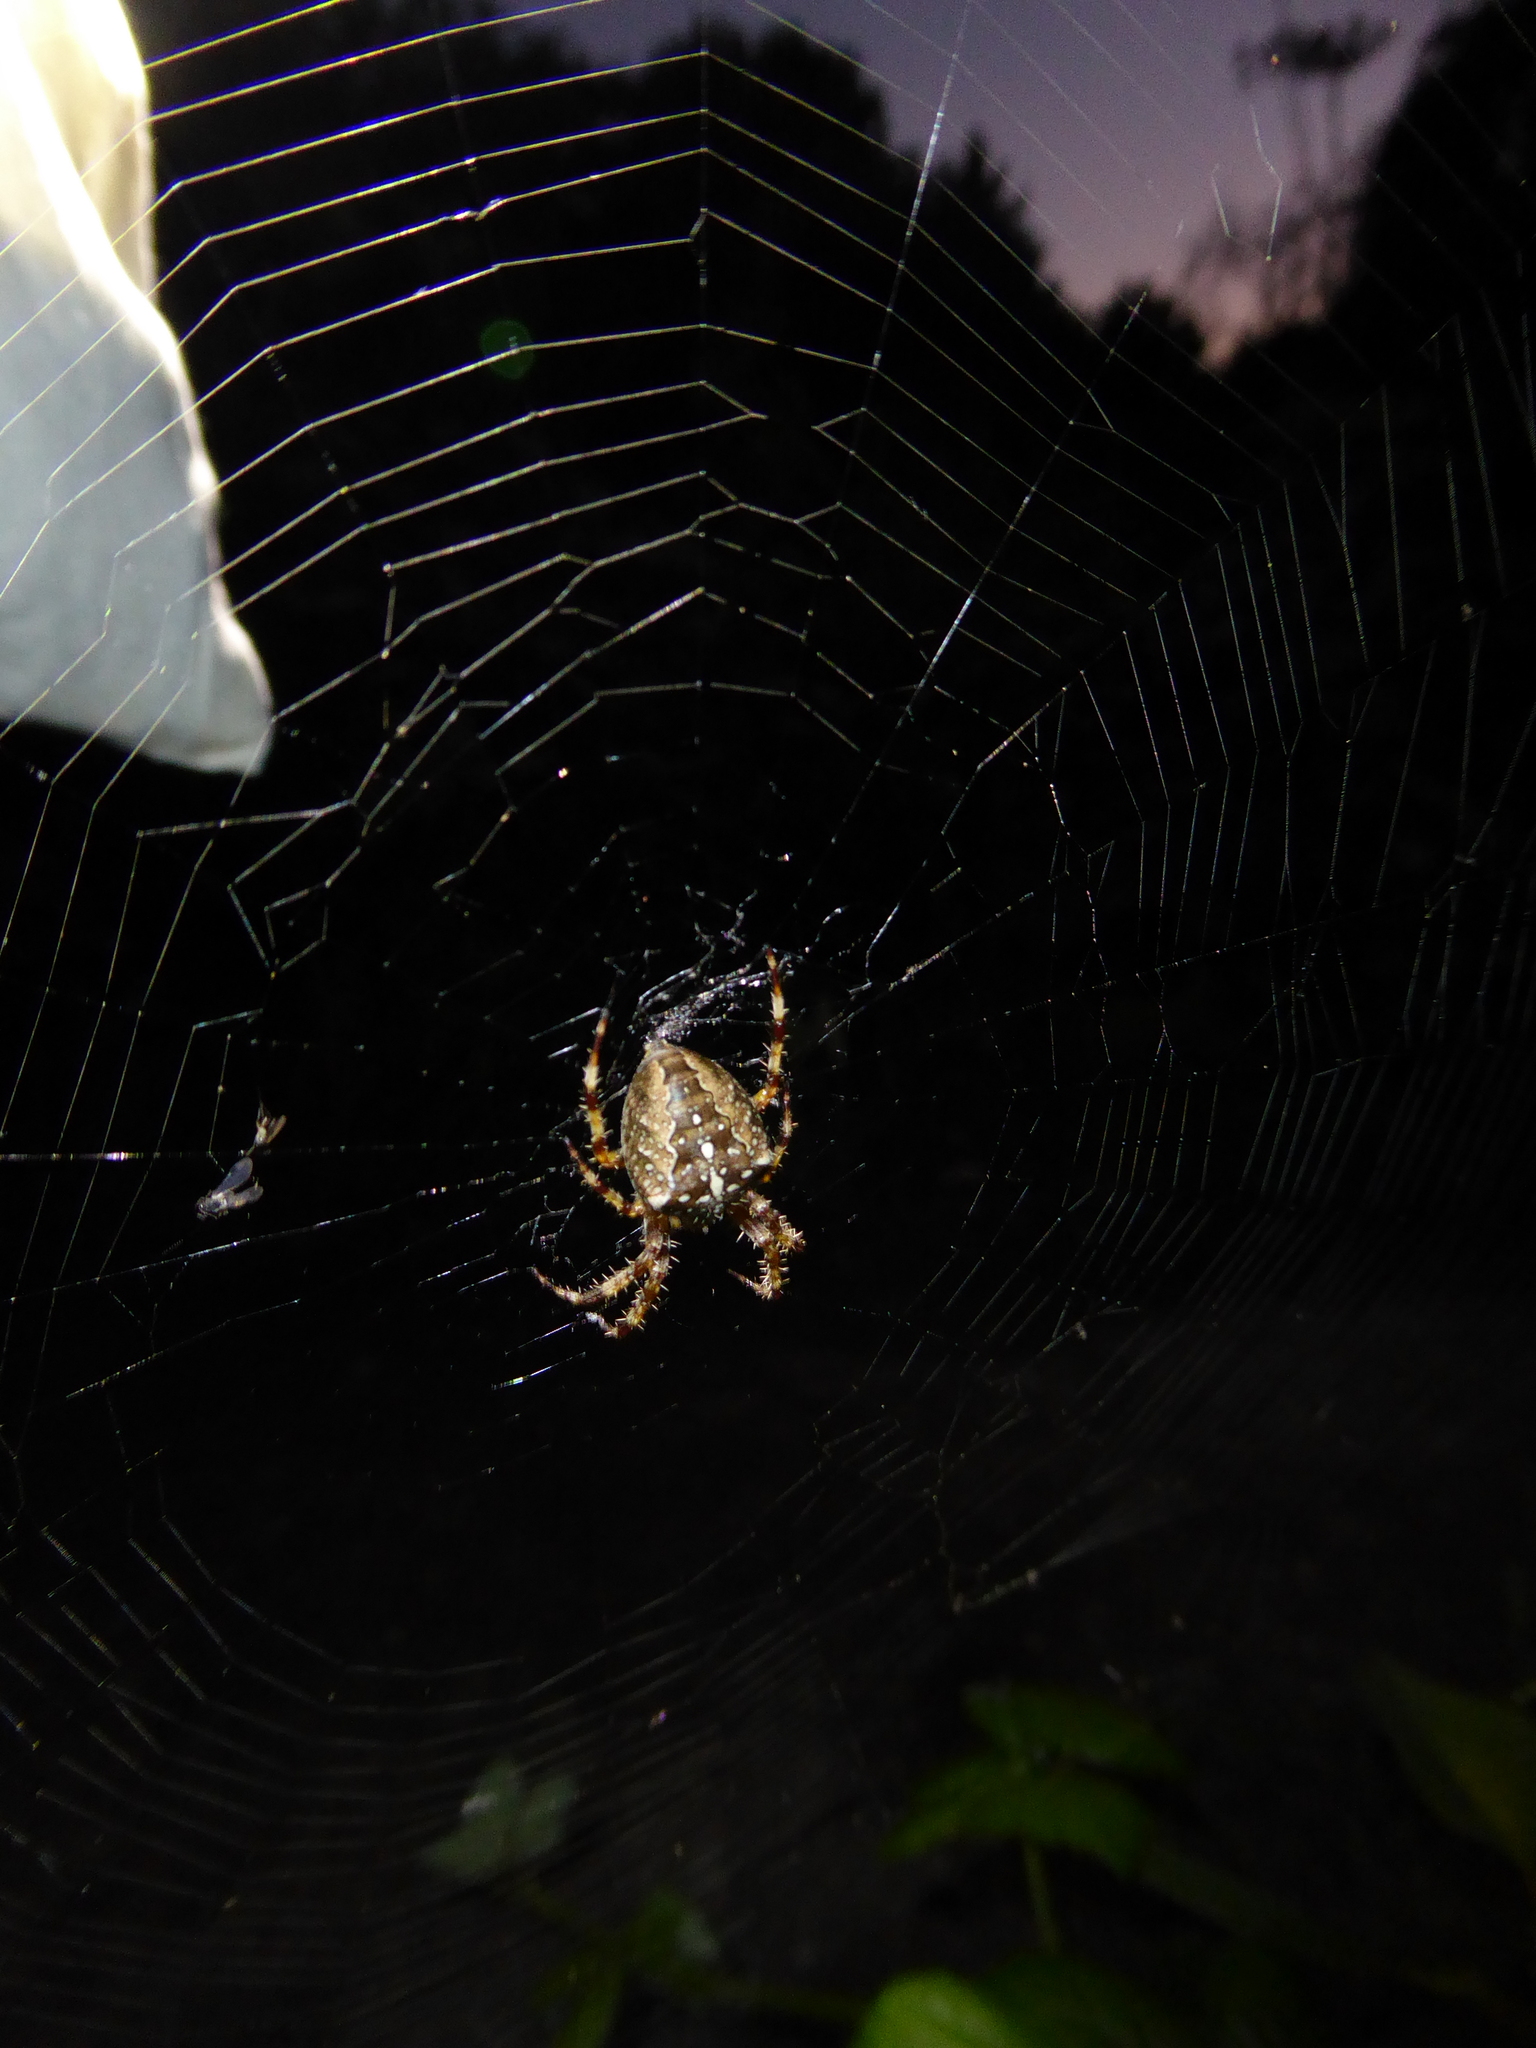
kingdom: Animalia
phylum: Arthropoda
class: Arachnida
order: Araneae
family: Araneidae
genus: Araneus
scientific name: Araneus diadematus
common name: Cross orbweaver
